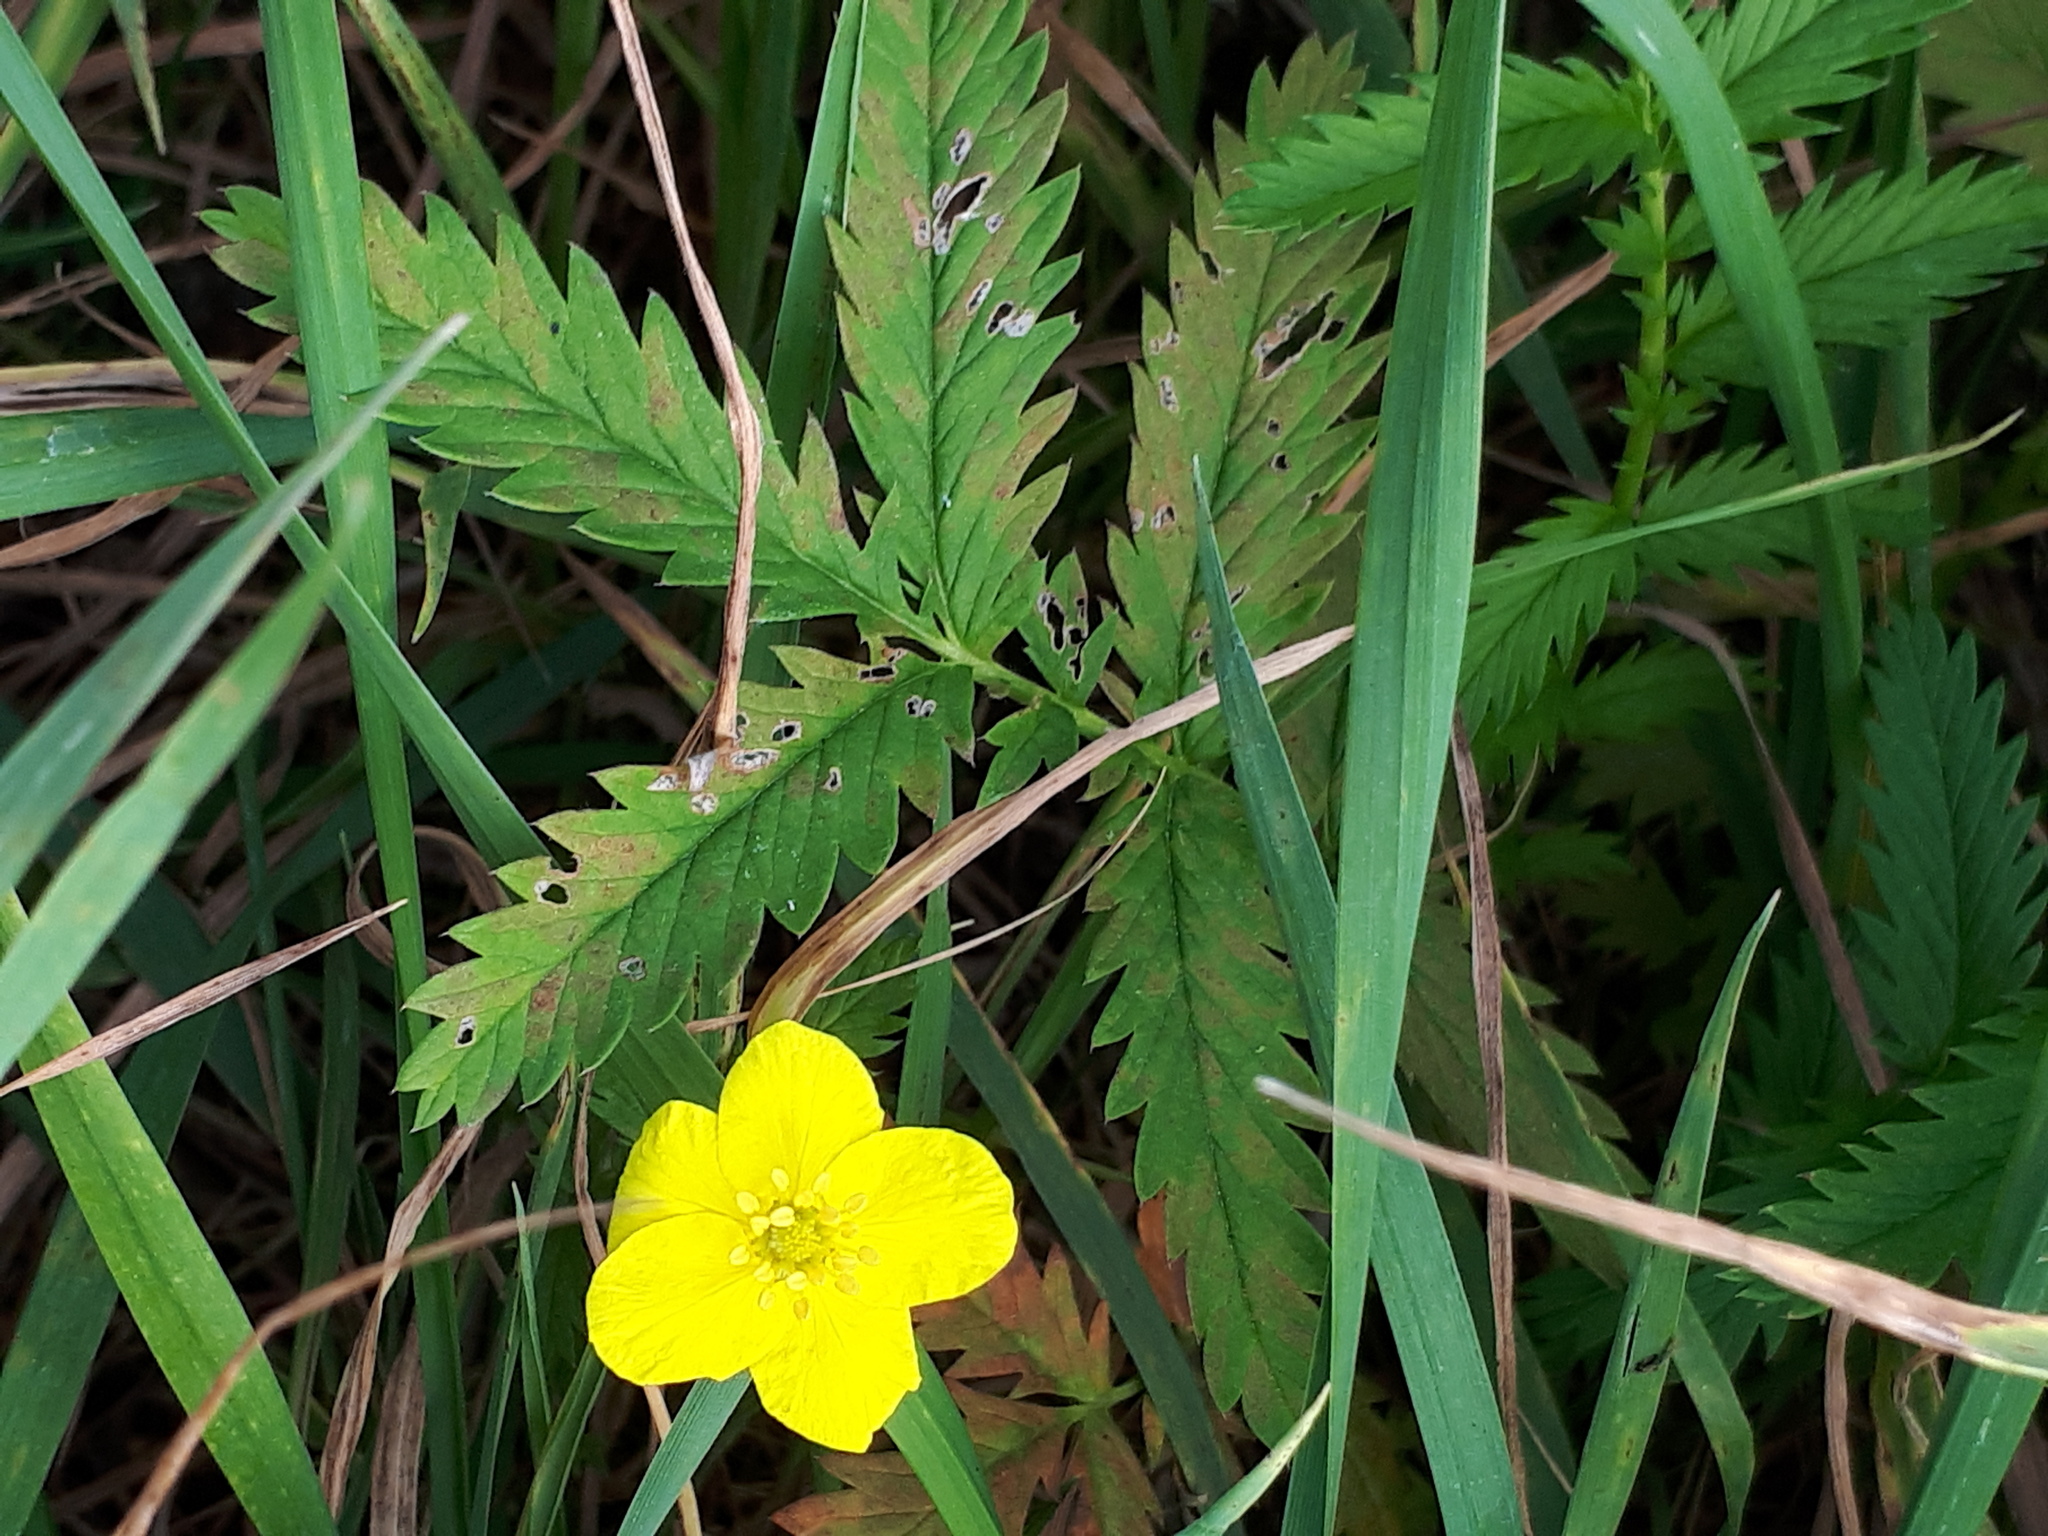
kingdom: Plantae
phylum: Tracheophyta
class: Magnoliopsida
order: Rosales
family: Rosaceae
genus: Argentina
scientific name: Argentina anserina
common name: Common silverweed
